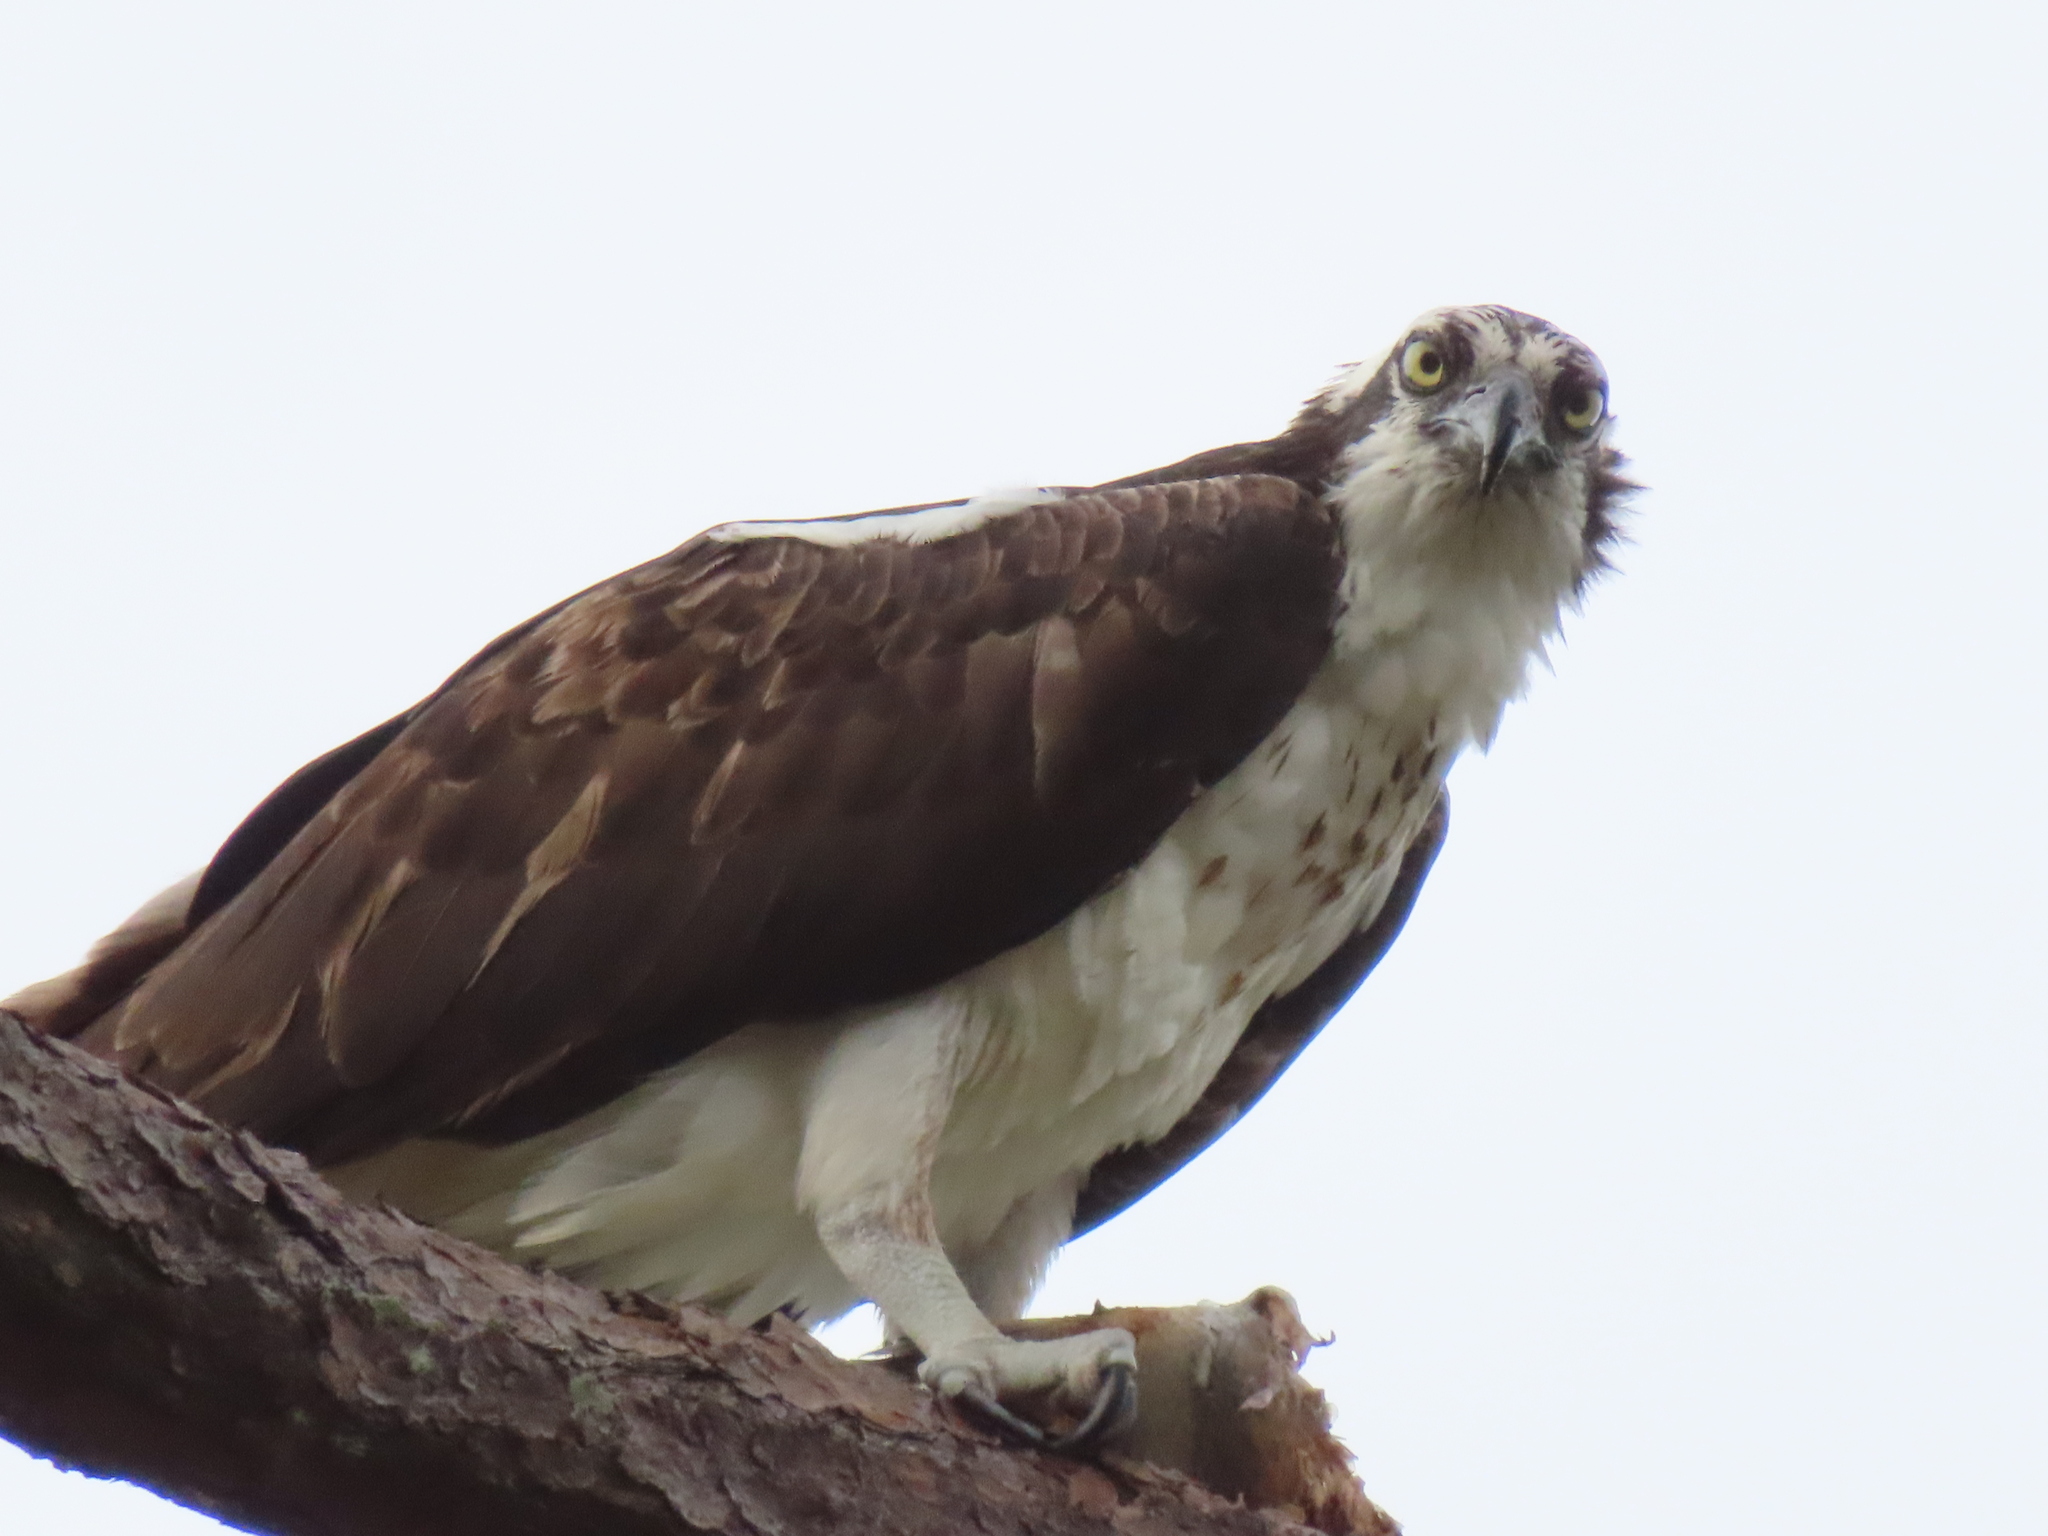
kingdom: Animalia
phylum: Chordata
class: Aves
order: Accipitriformes
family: Pandionidae
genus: Pandion
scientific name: Pandion haliaetus
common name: Osprey
